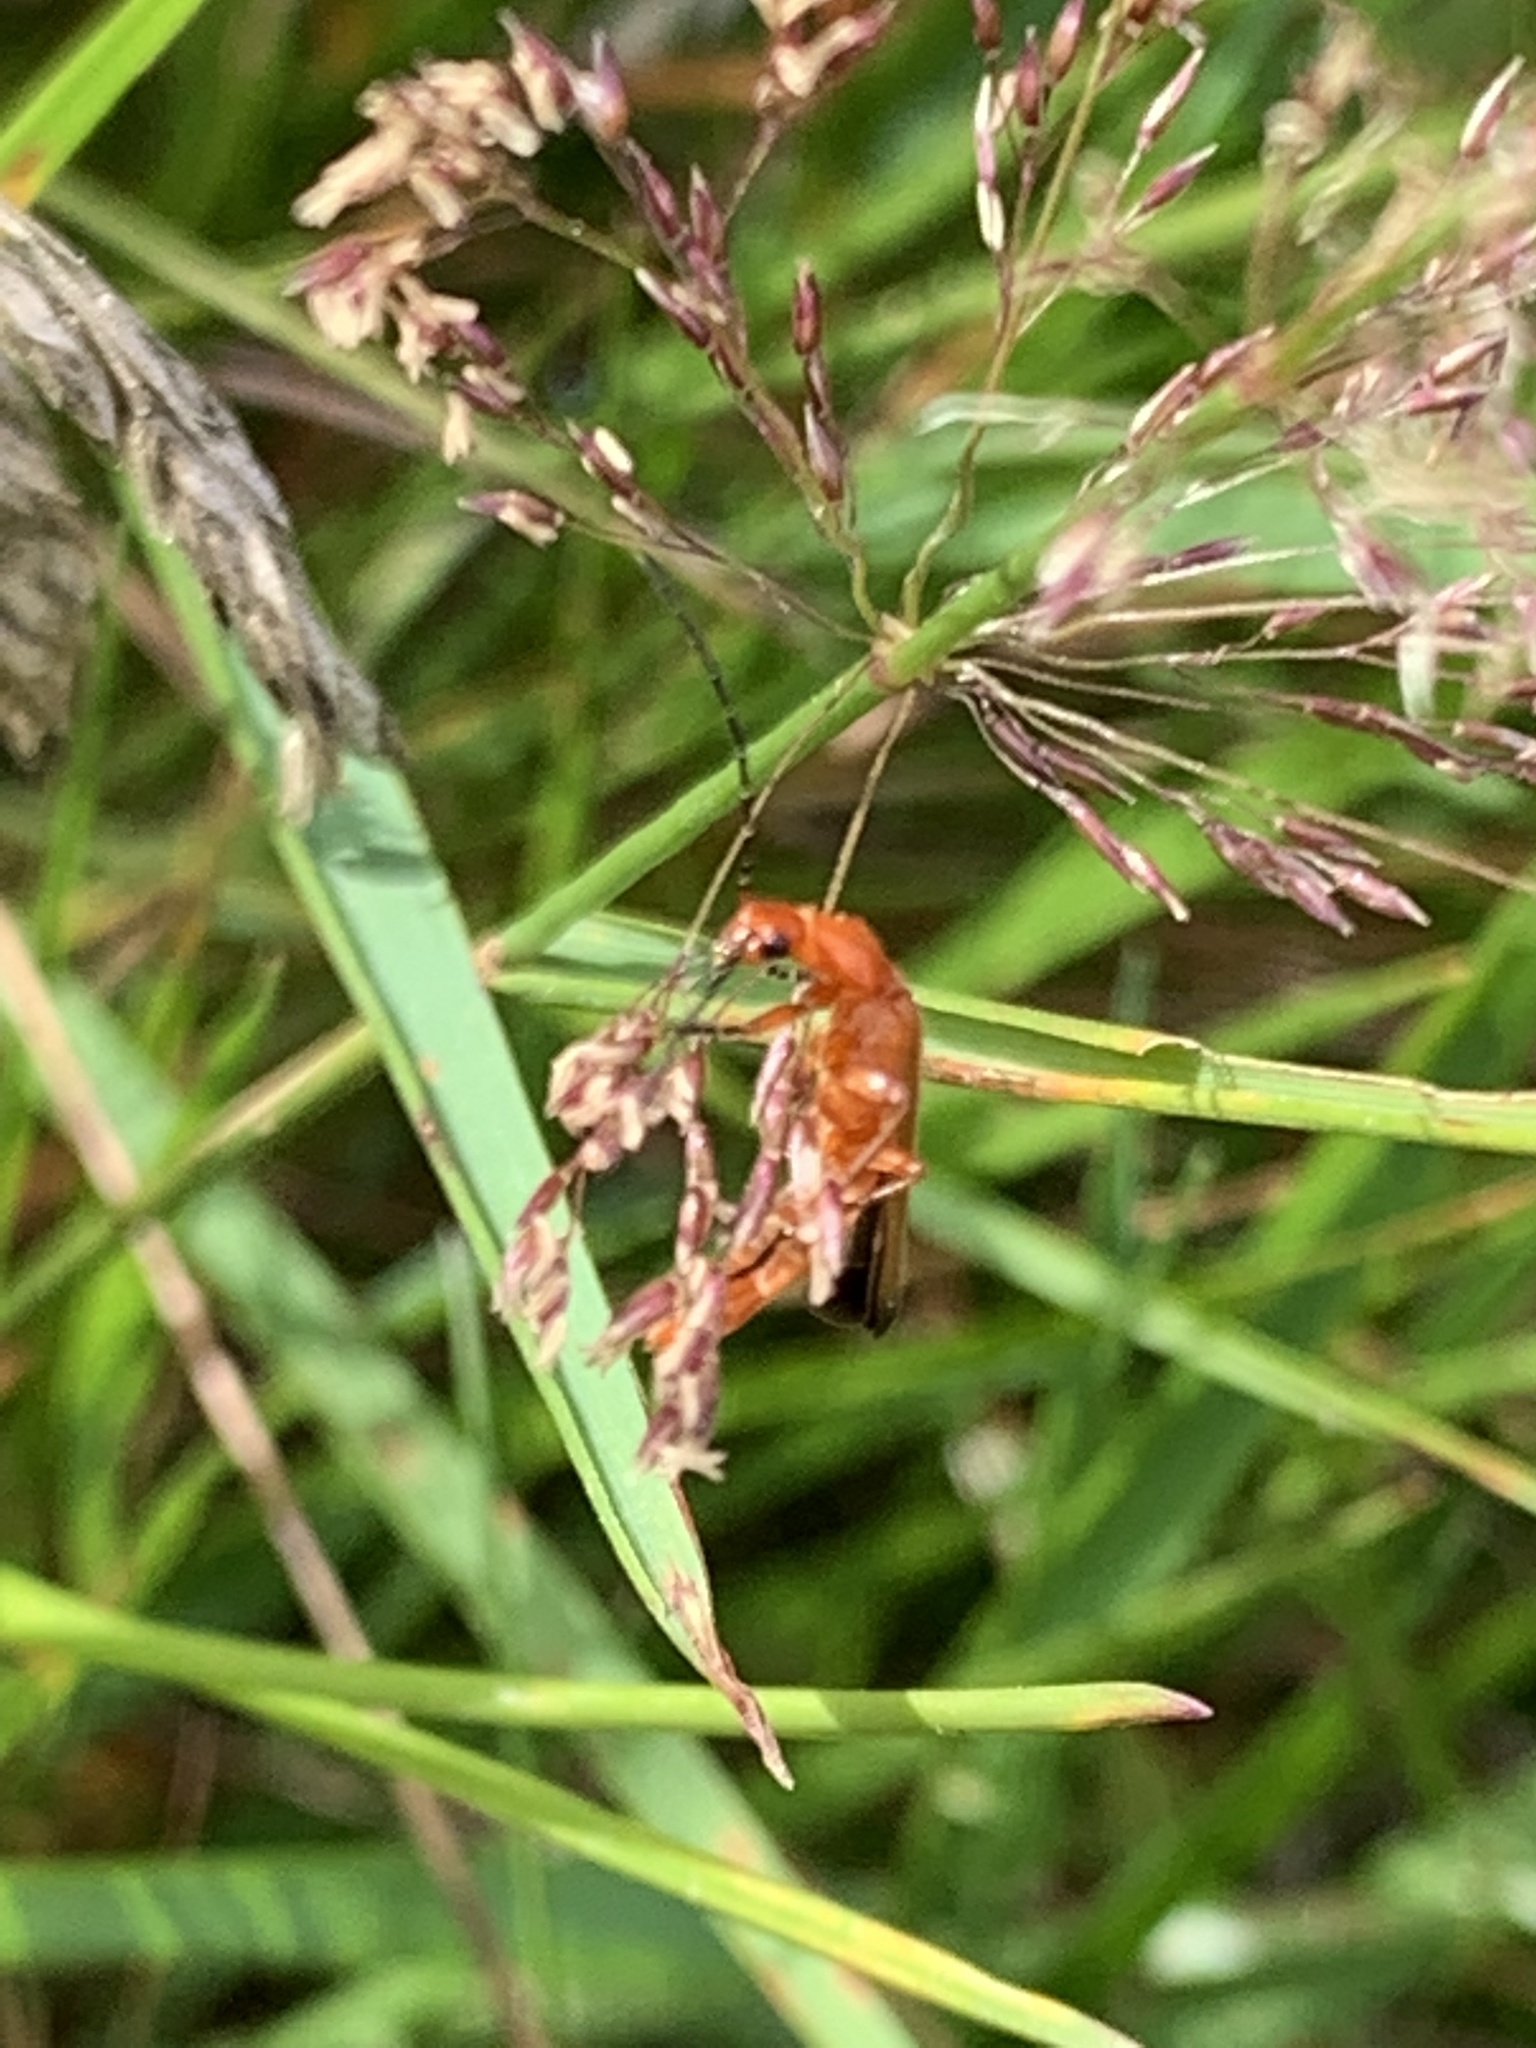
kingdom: Animalia
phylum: Arthropoda
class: Insecta
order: Coleoptera
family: Cantharidae
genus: Rhagonycha
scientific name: Rhagonycha fulva
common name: Common red soldier beetle
